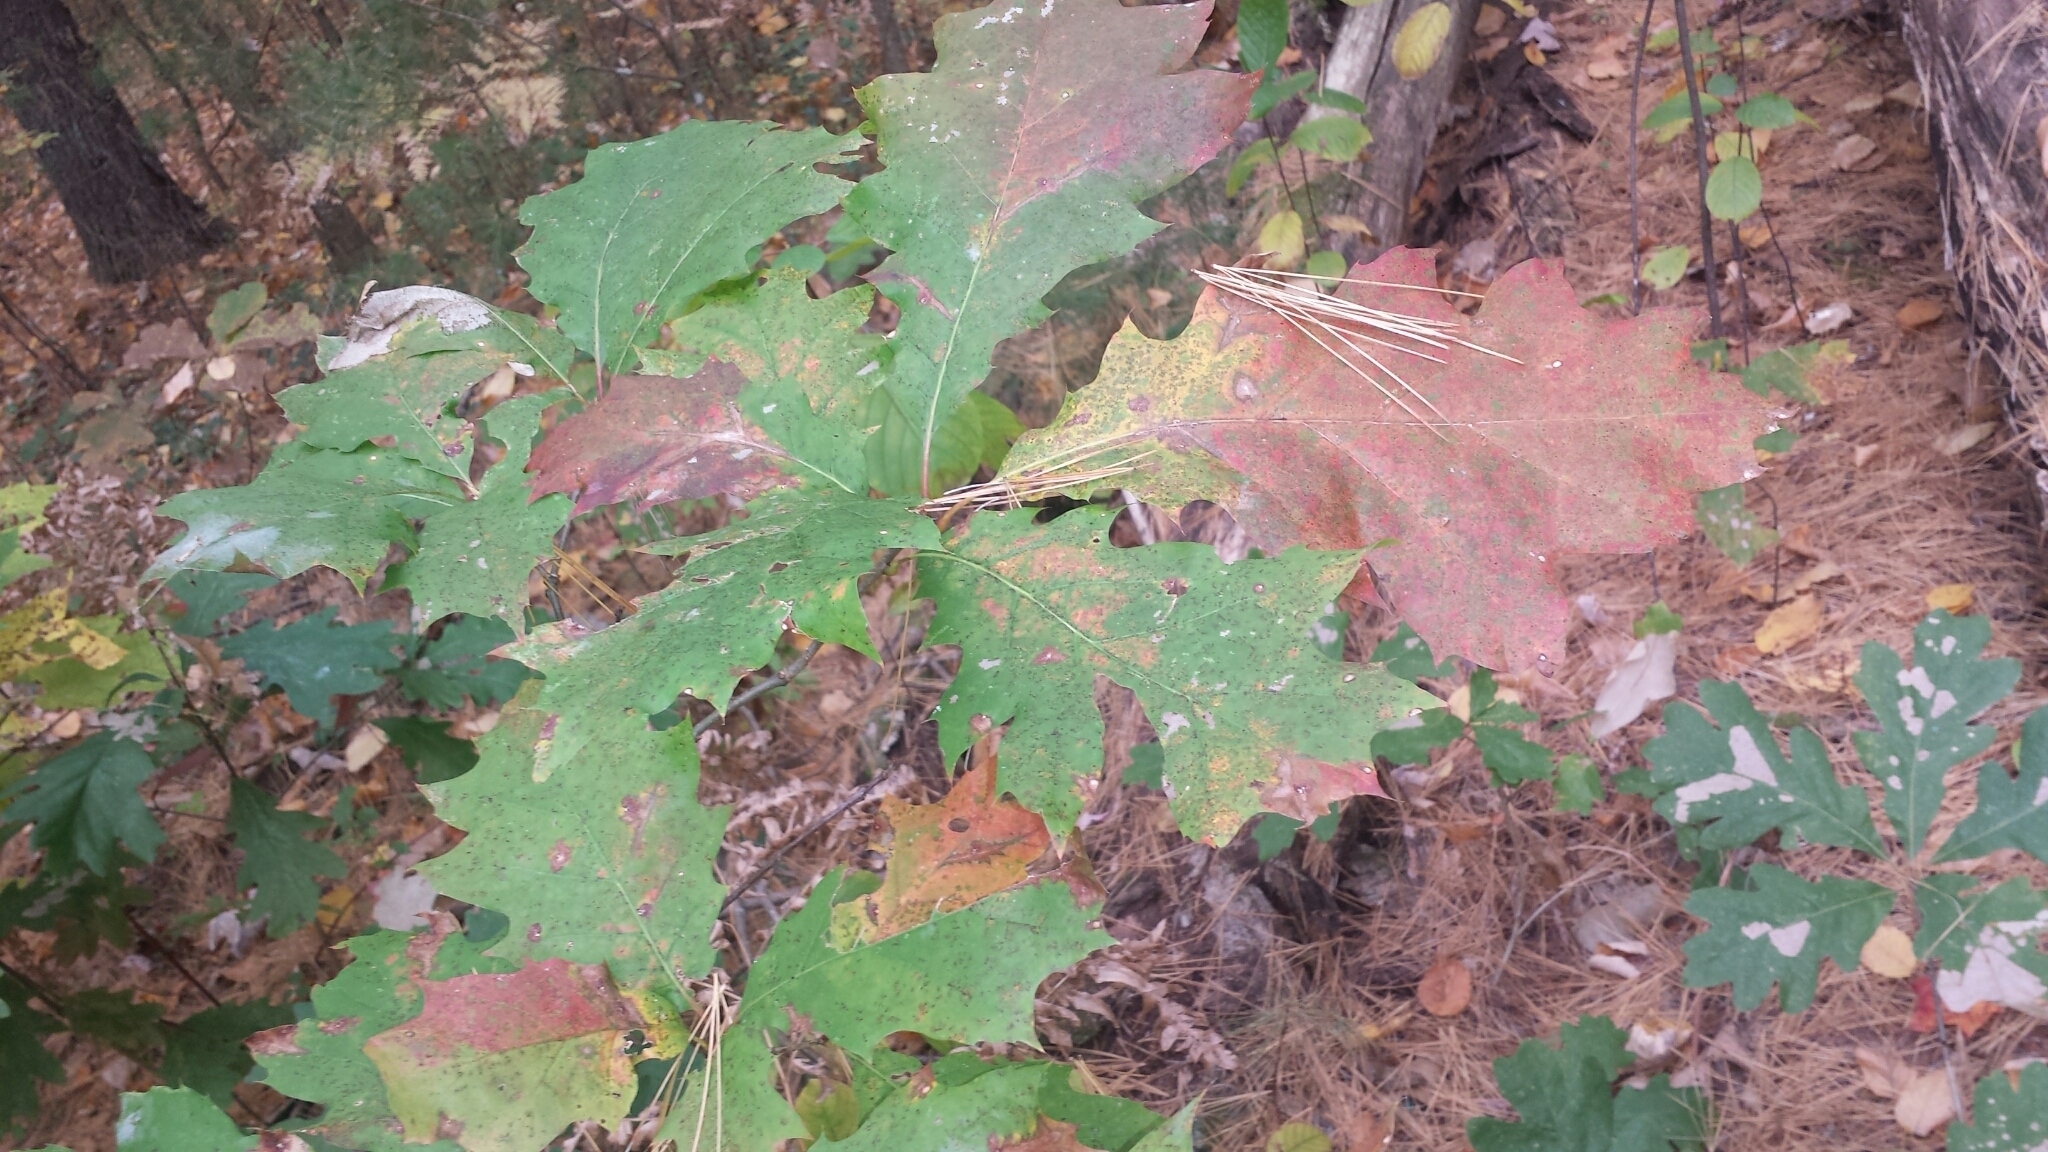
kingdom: Plantae
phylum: Tracheophyta
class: Magnoliopsida
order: Fagales
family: Fagaceae
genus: Quercus
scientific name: Quercus rubra
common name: Red oak
